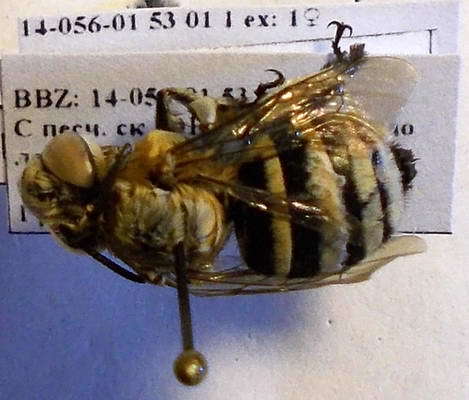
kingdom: Animalia
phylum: Arthropoda
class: Insecta
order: Hymenoptera
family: Apidae
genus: Amegilla
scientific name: Amegilla quadrifasciata
